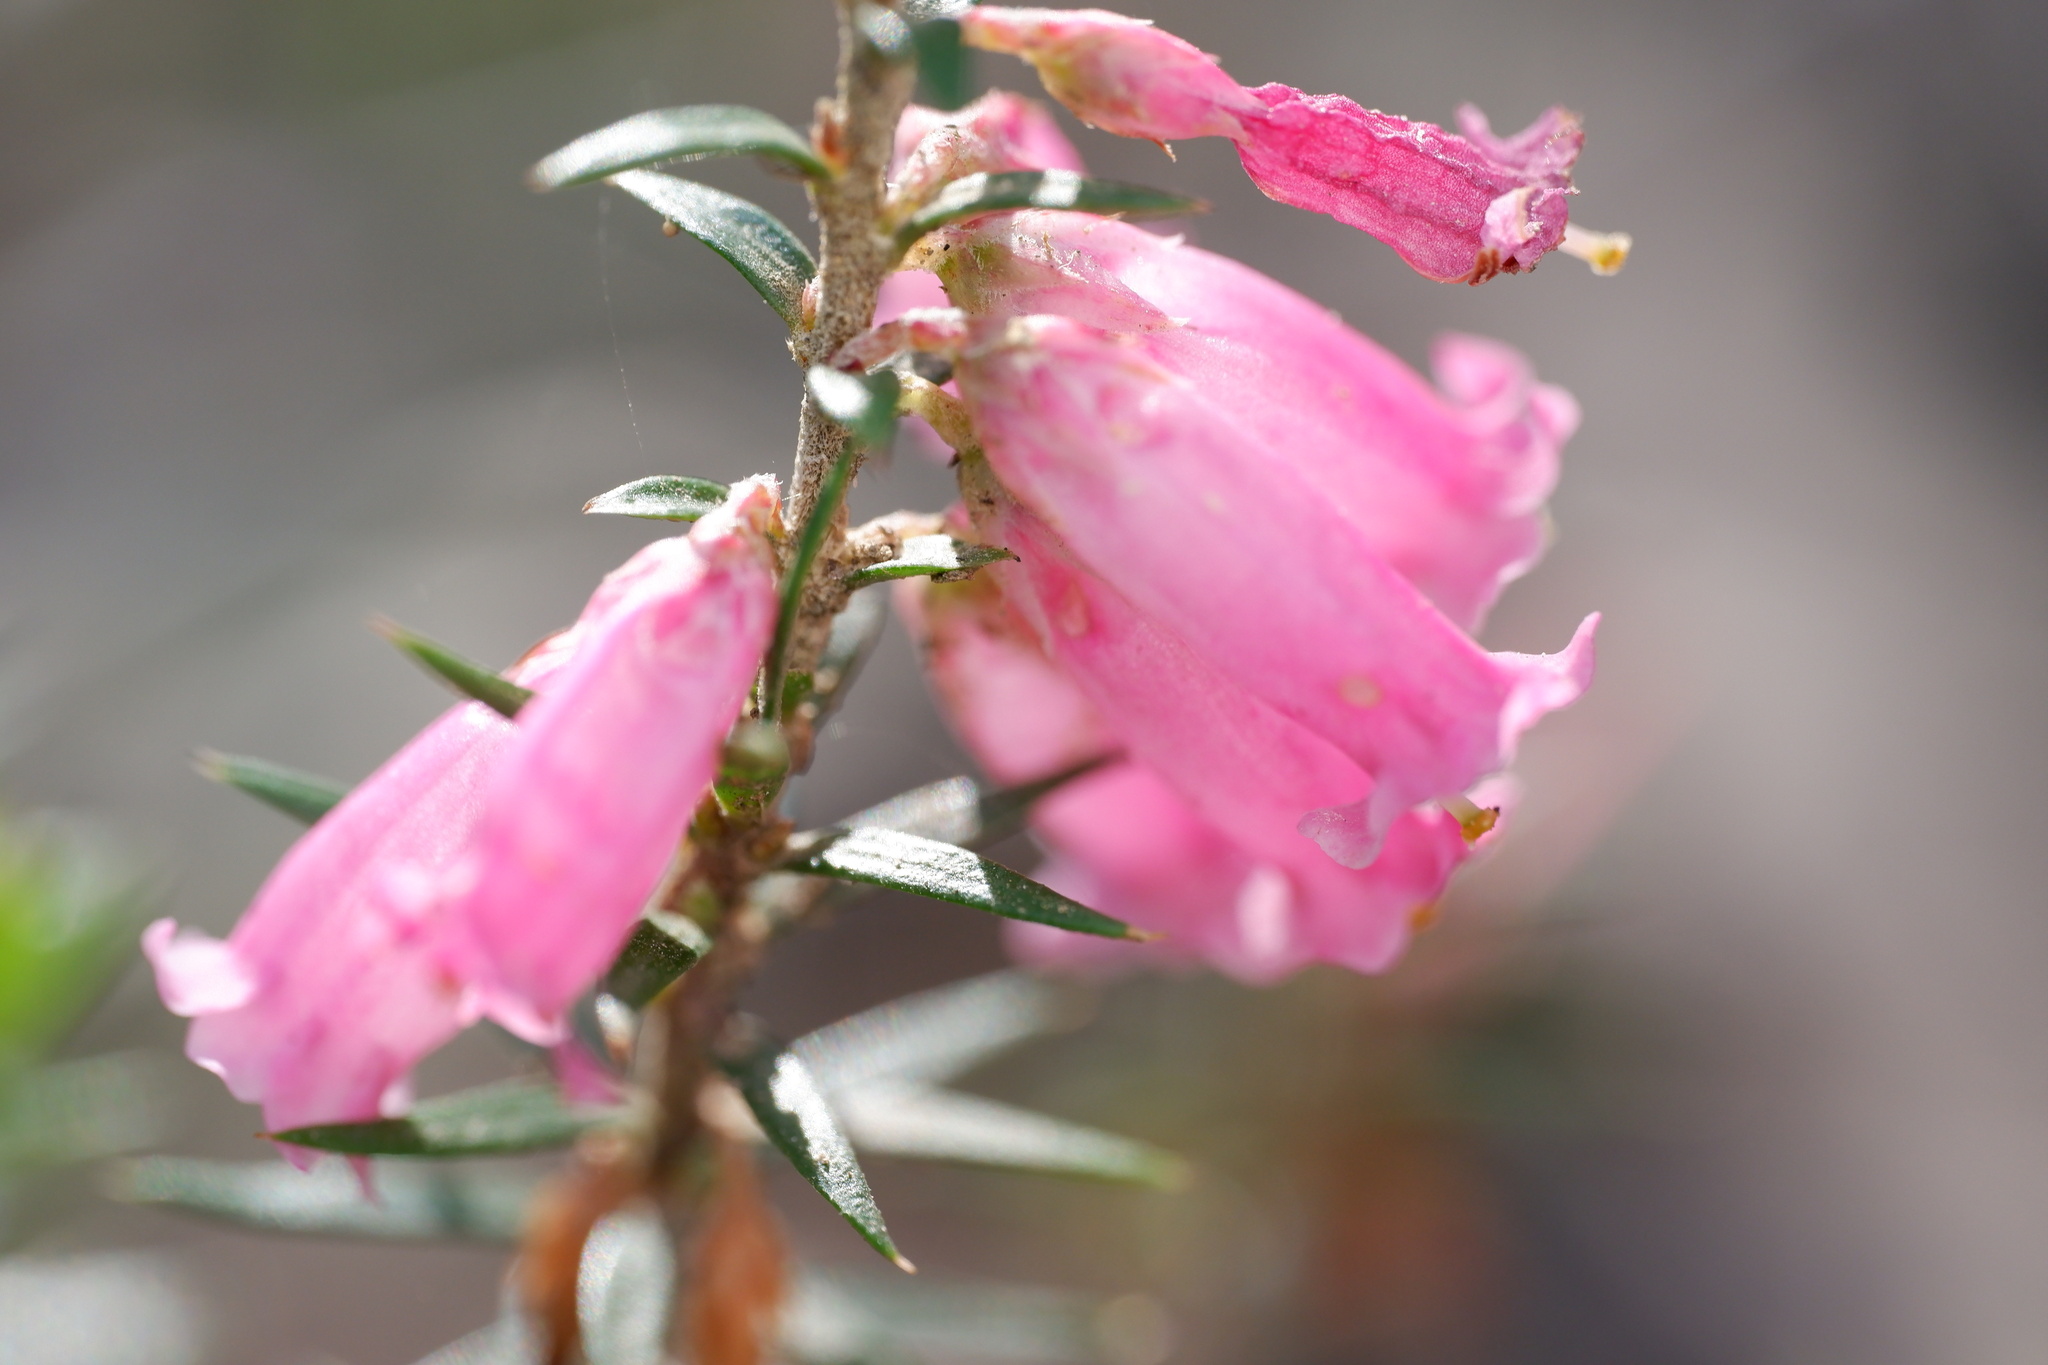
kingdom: Plantae
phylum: Tracheophyta
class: Magnoliopsida
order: Ericales
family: Ericaceae
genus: Epacris
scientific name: Epacris impressa
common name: Common-heath
